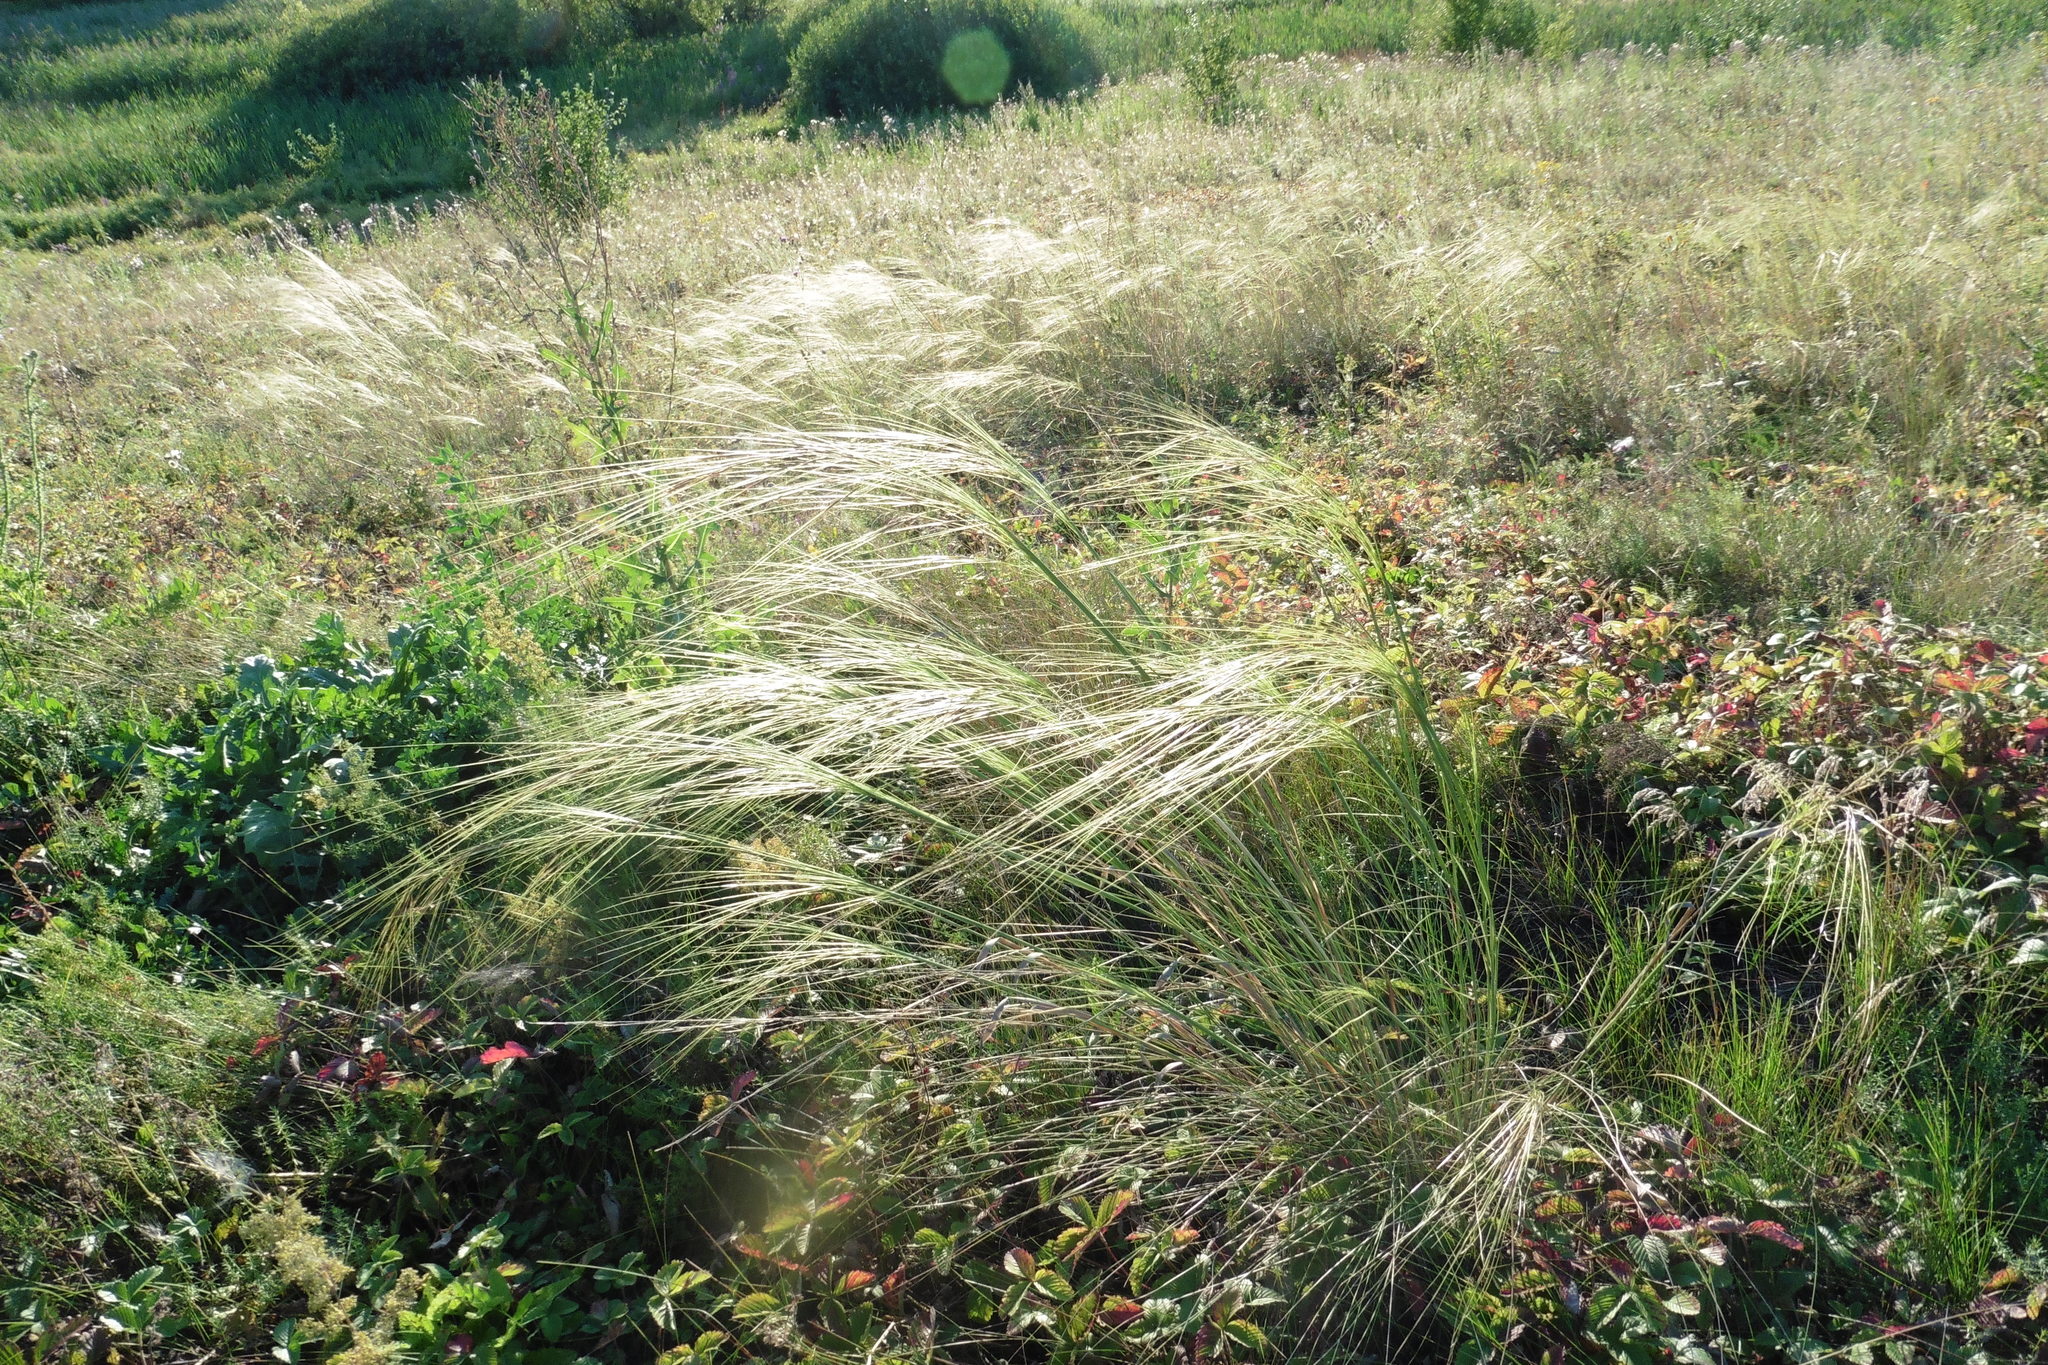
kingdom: Plantae
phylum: Tracheophyta
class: Liliopsida
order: Poales
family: Poaceae
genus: Stipa
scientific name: Stipa capillata
